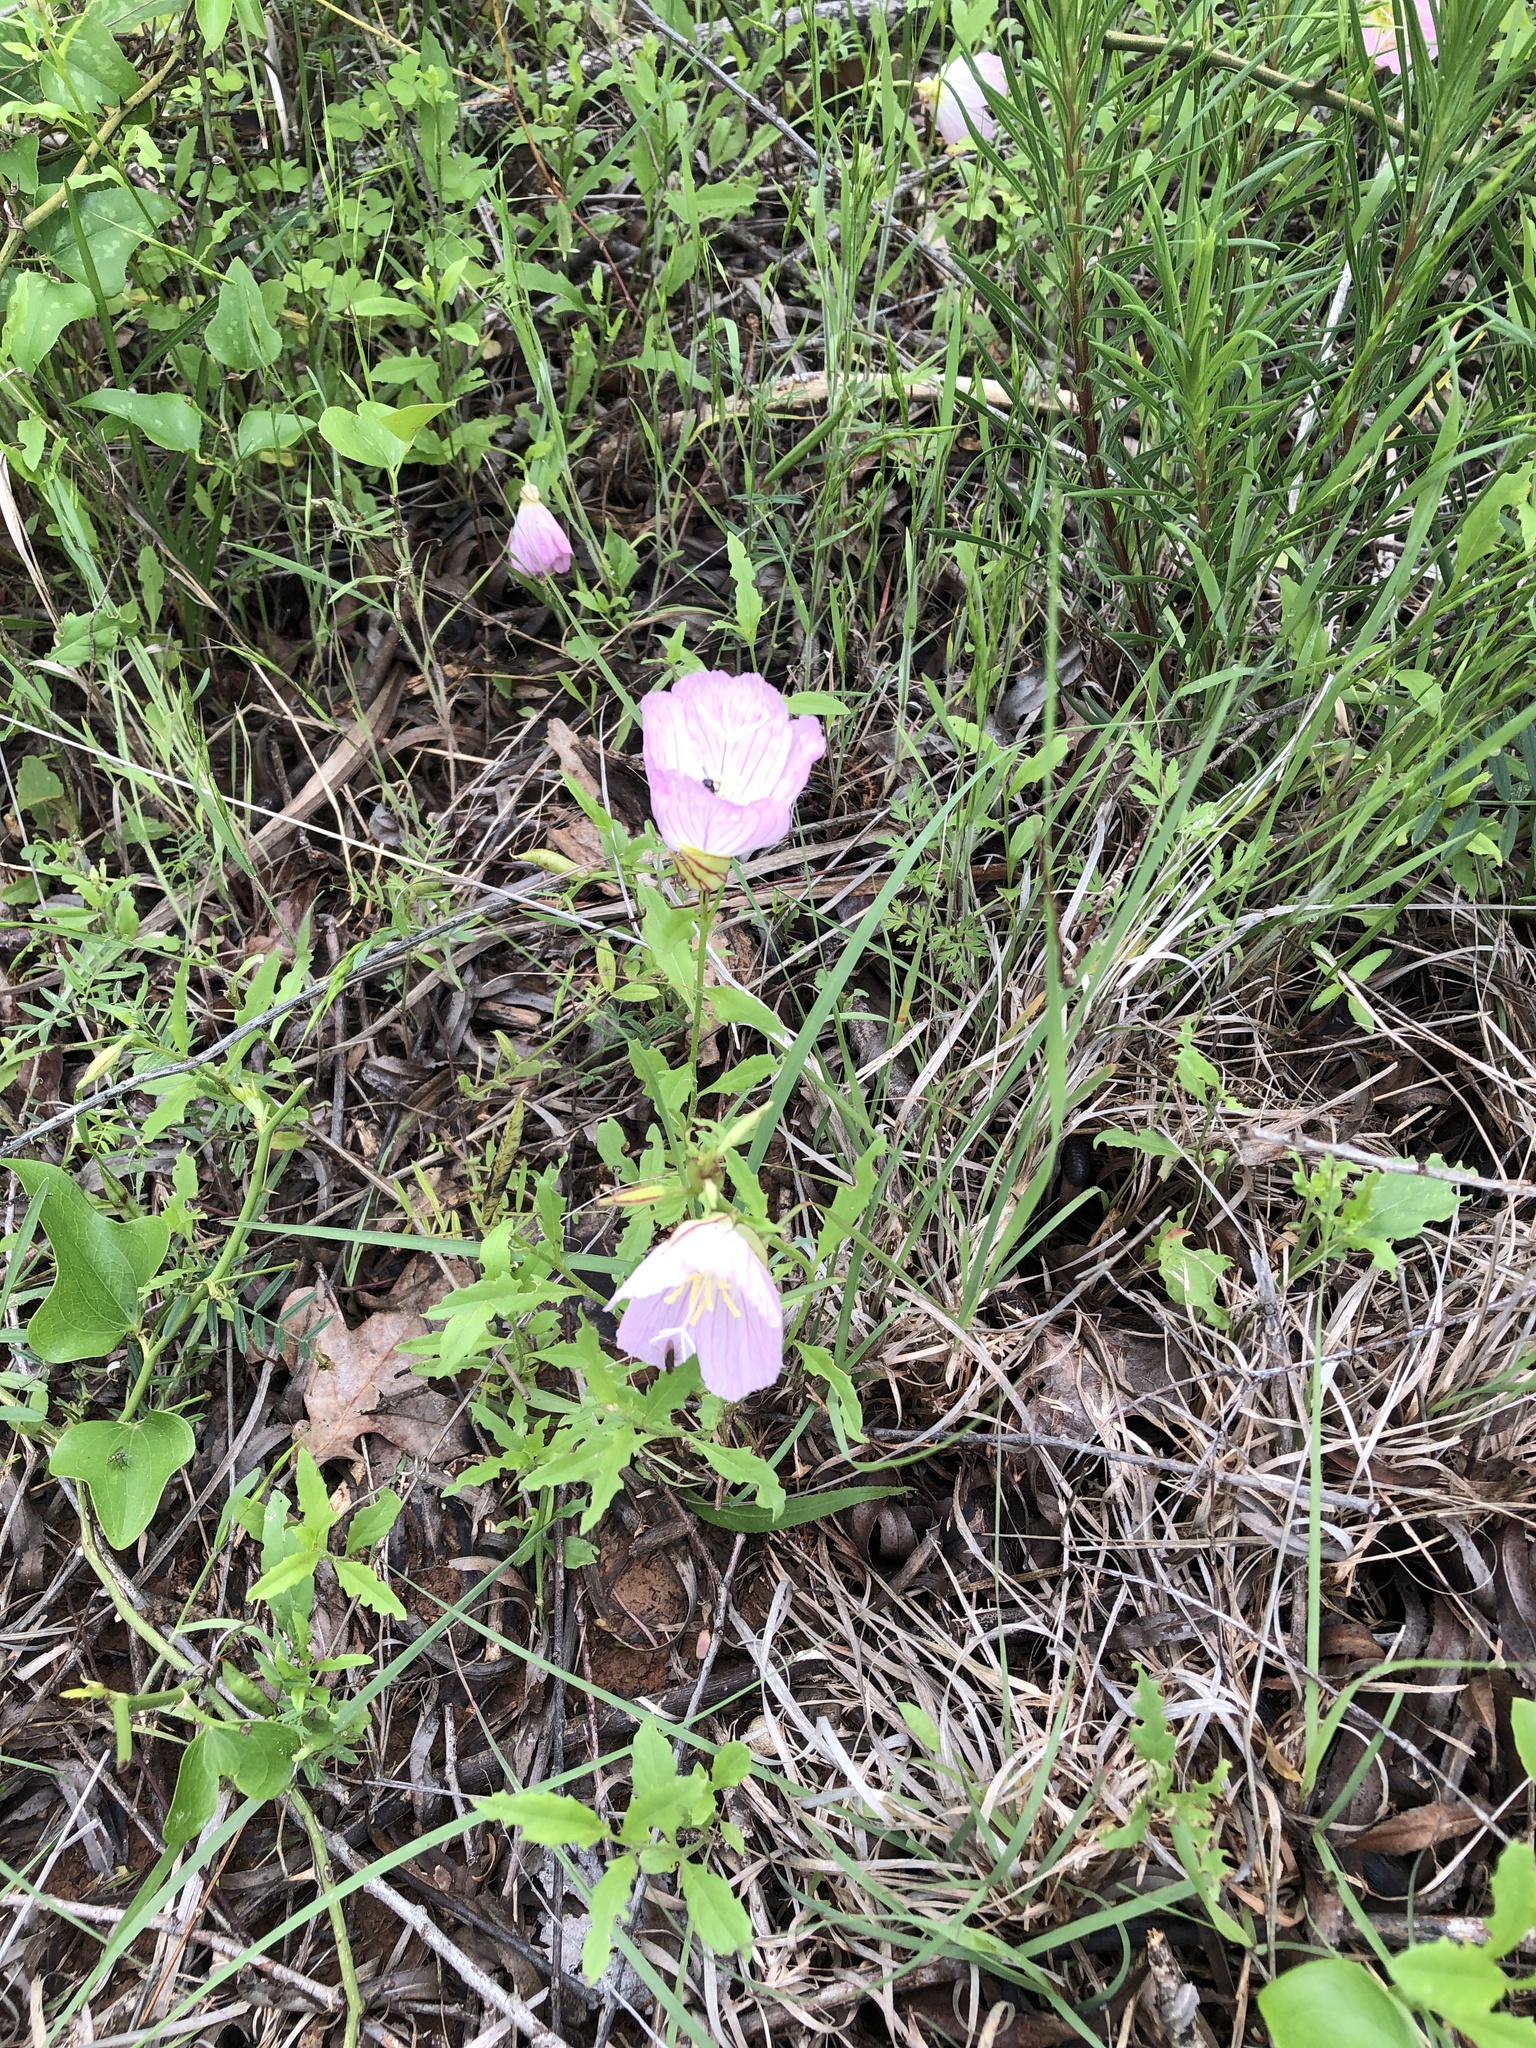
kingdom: Plantae
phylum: Tracheophyta
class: Magnoliopsida
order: Myrtales
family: Onagraceae
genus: Oenothera
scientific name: Oenothera speciosa
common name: White evening-primrose
